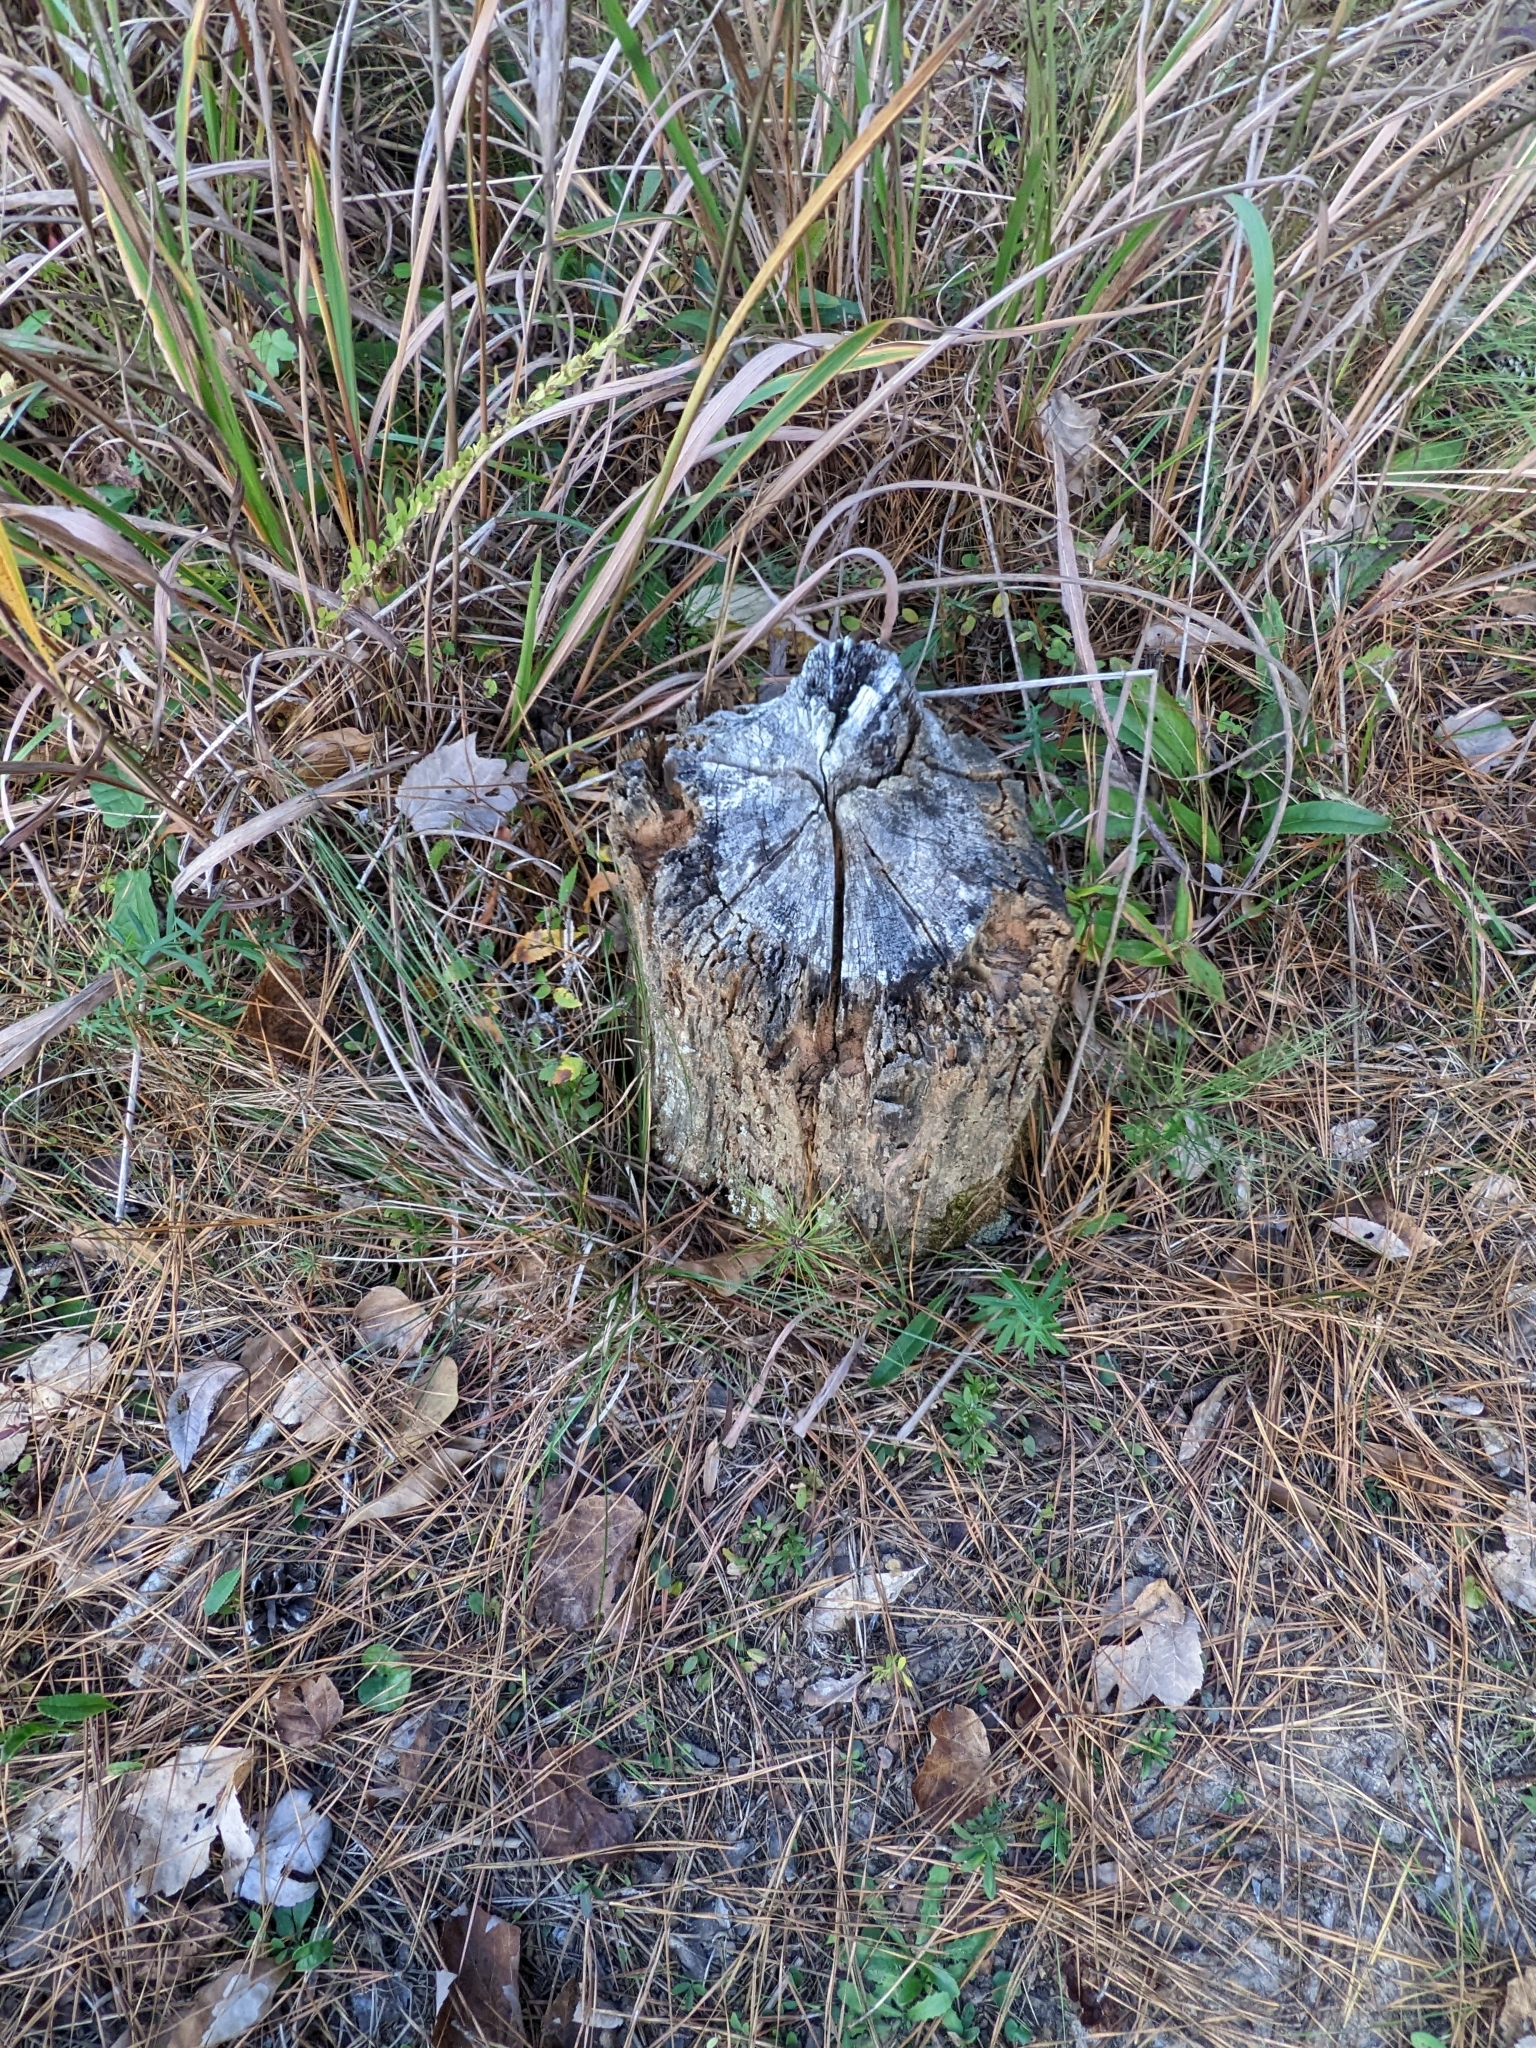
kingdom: Animalia
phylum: Chordata
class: Mammalia
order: Rodentia
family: Castoridae
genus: Castor
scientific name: Castor canadensis
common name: American beaver
